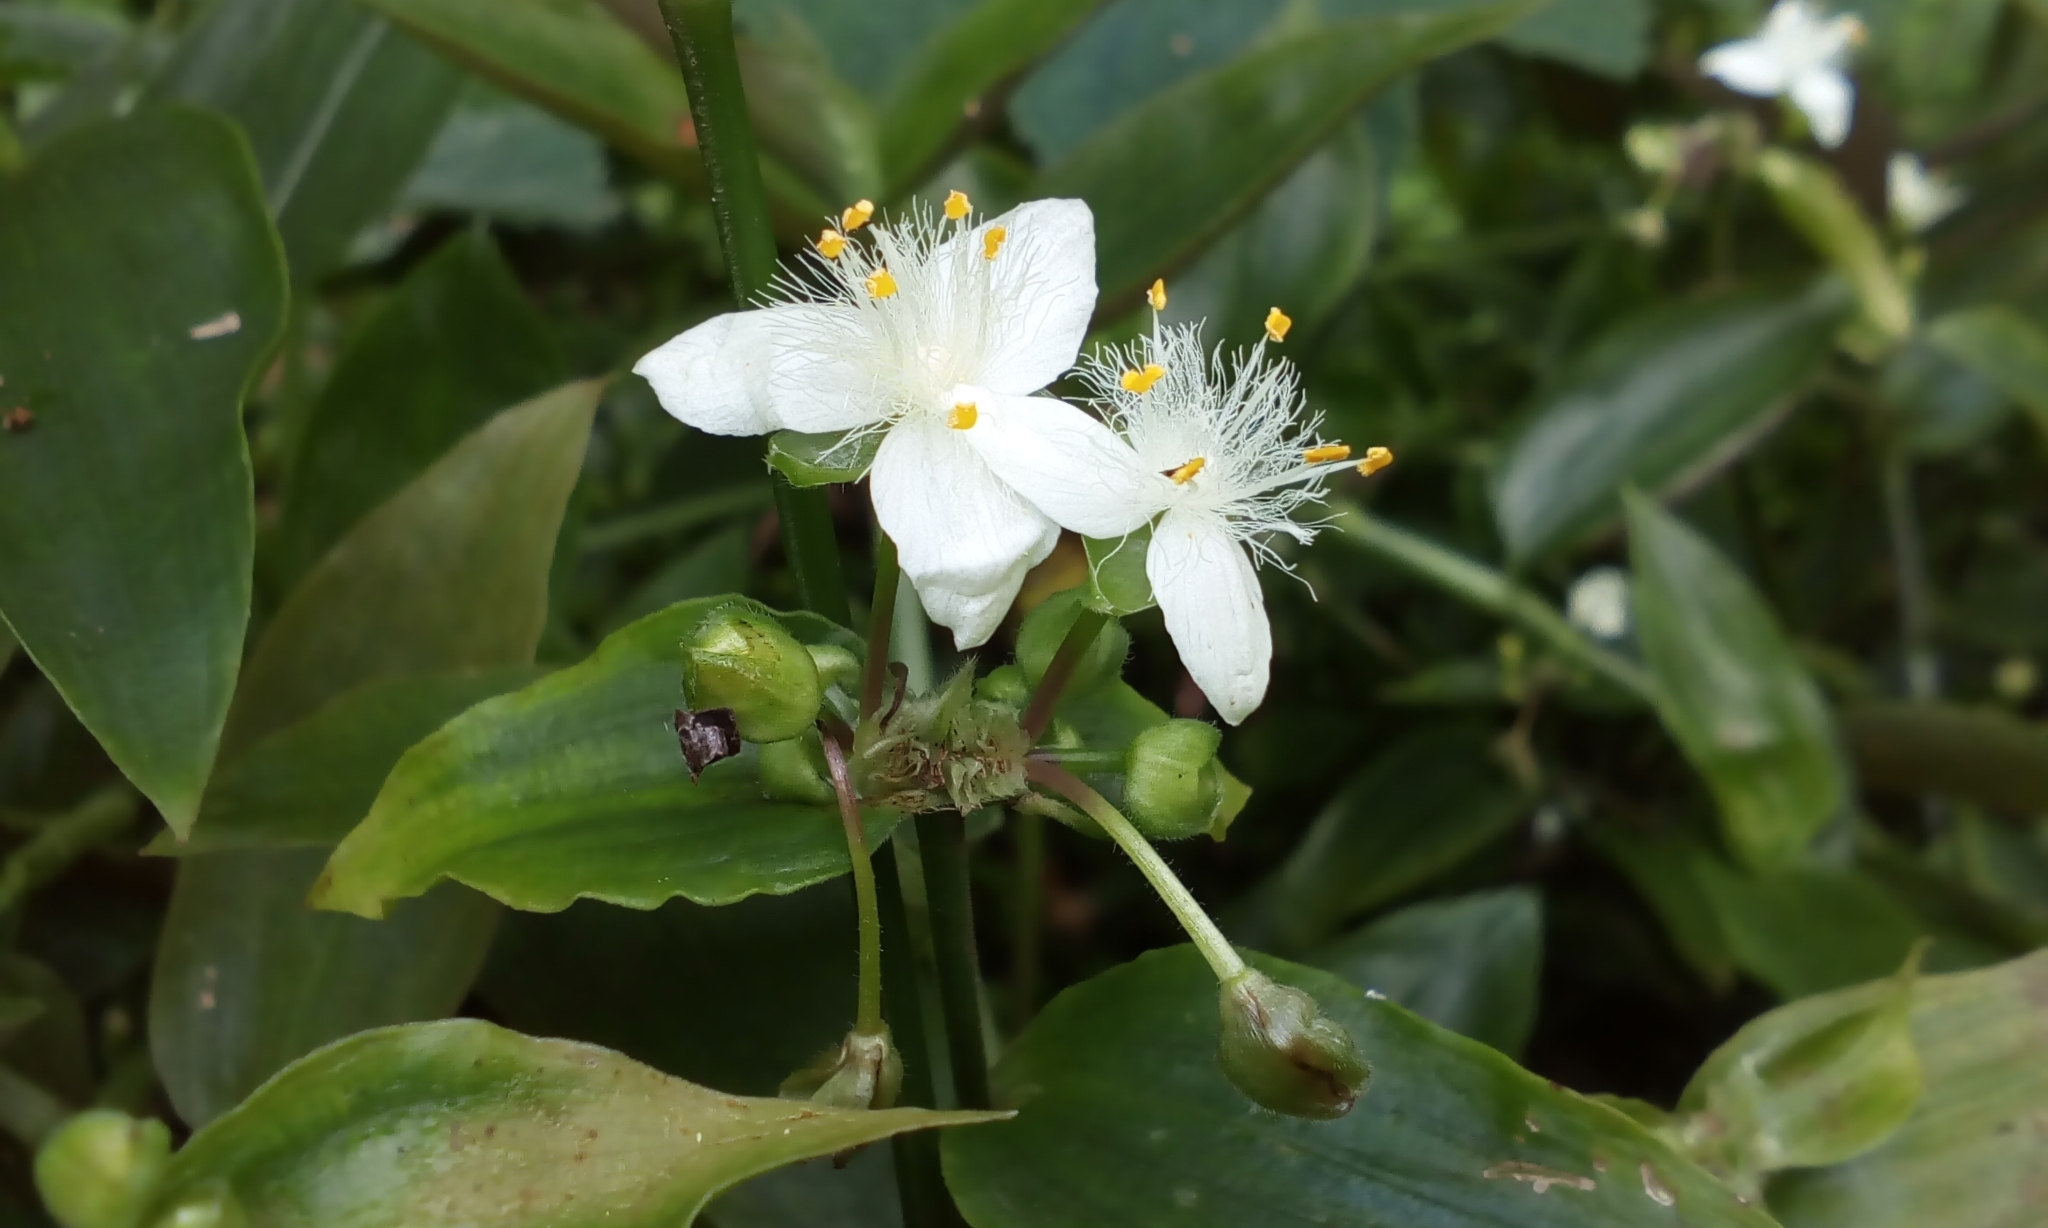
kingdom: Plantae
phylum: Tracheophyta
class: Liliopsida
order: Commelinales
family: Commelinaceae
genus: Tradescantia
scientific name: Tradescantia fluminensis
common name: Wandering-jew
